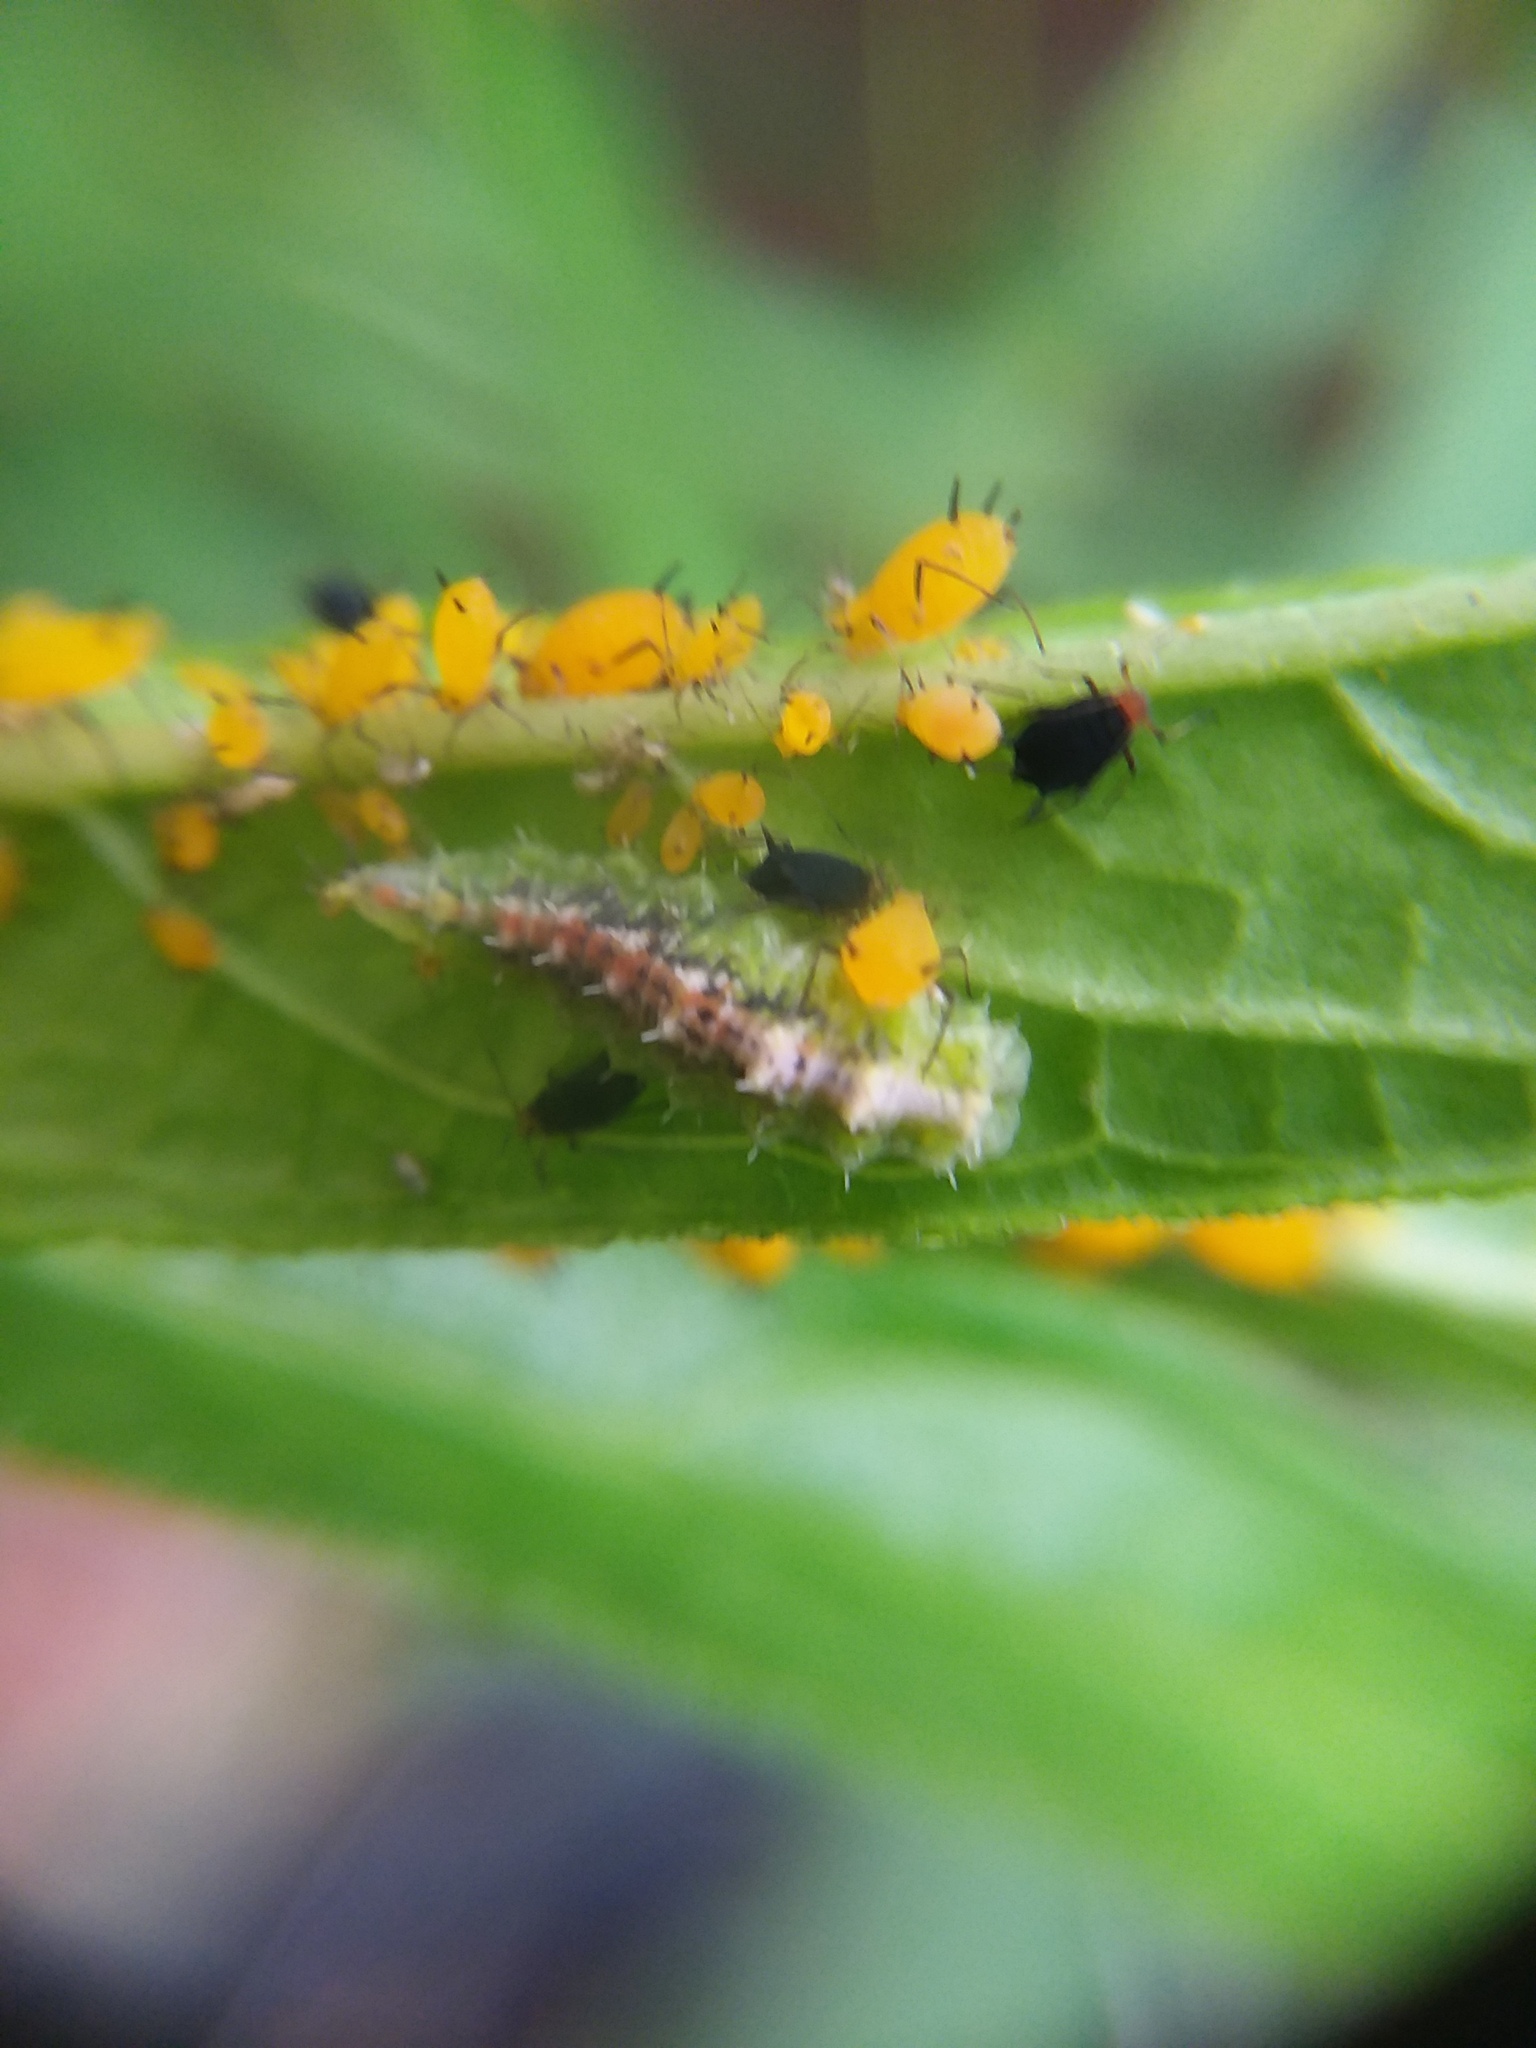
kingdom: Animalia
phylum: Arthropoda
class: Insecta
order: Hemiptera
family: Aphididae
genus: Aphis
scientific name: Aphis nerii
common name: Oleander aphid
